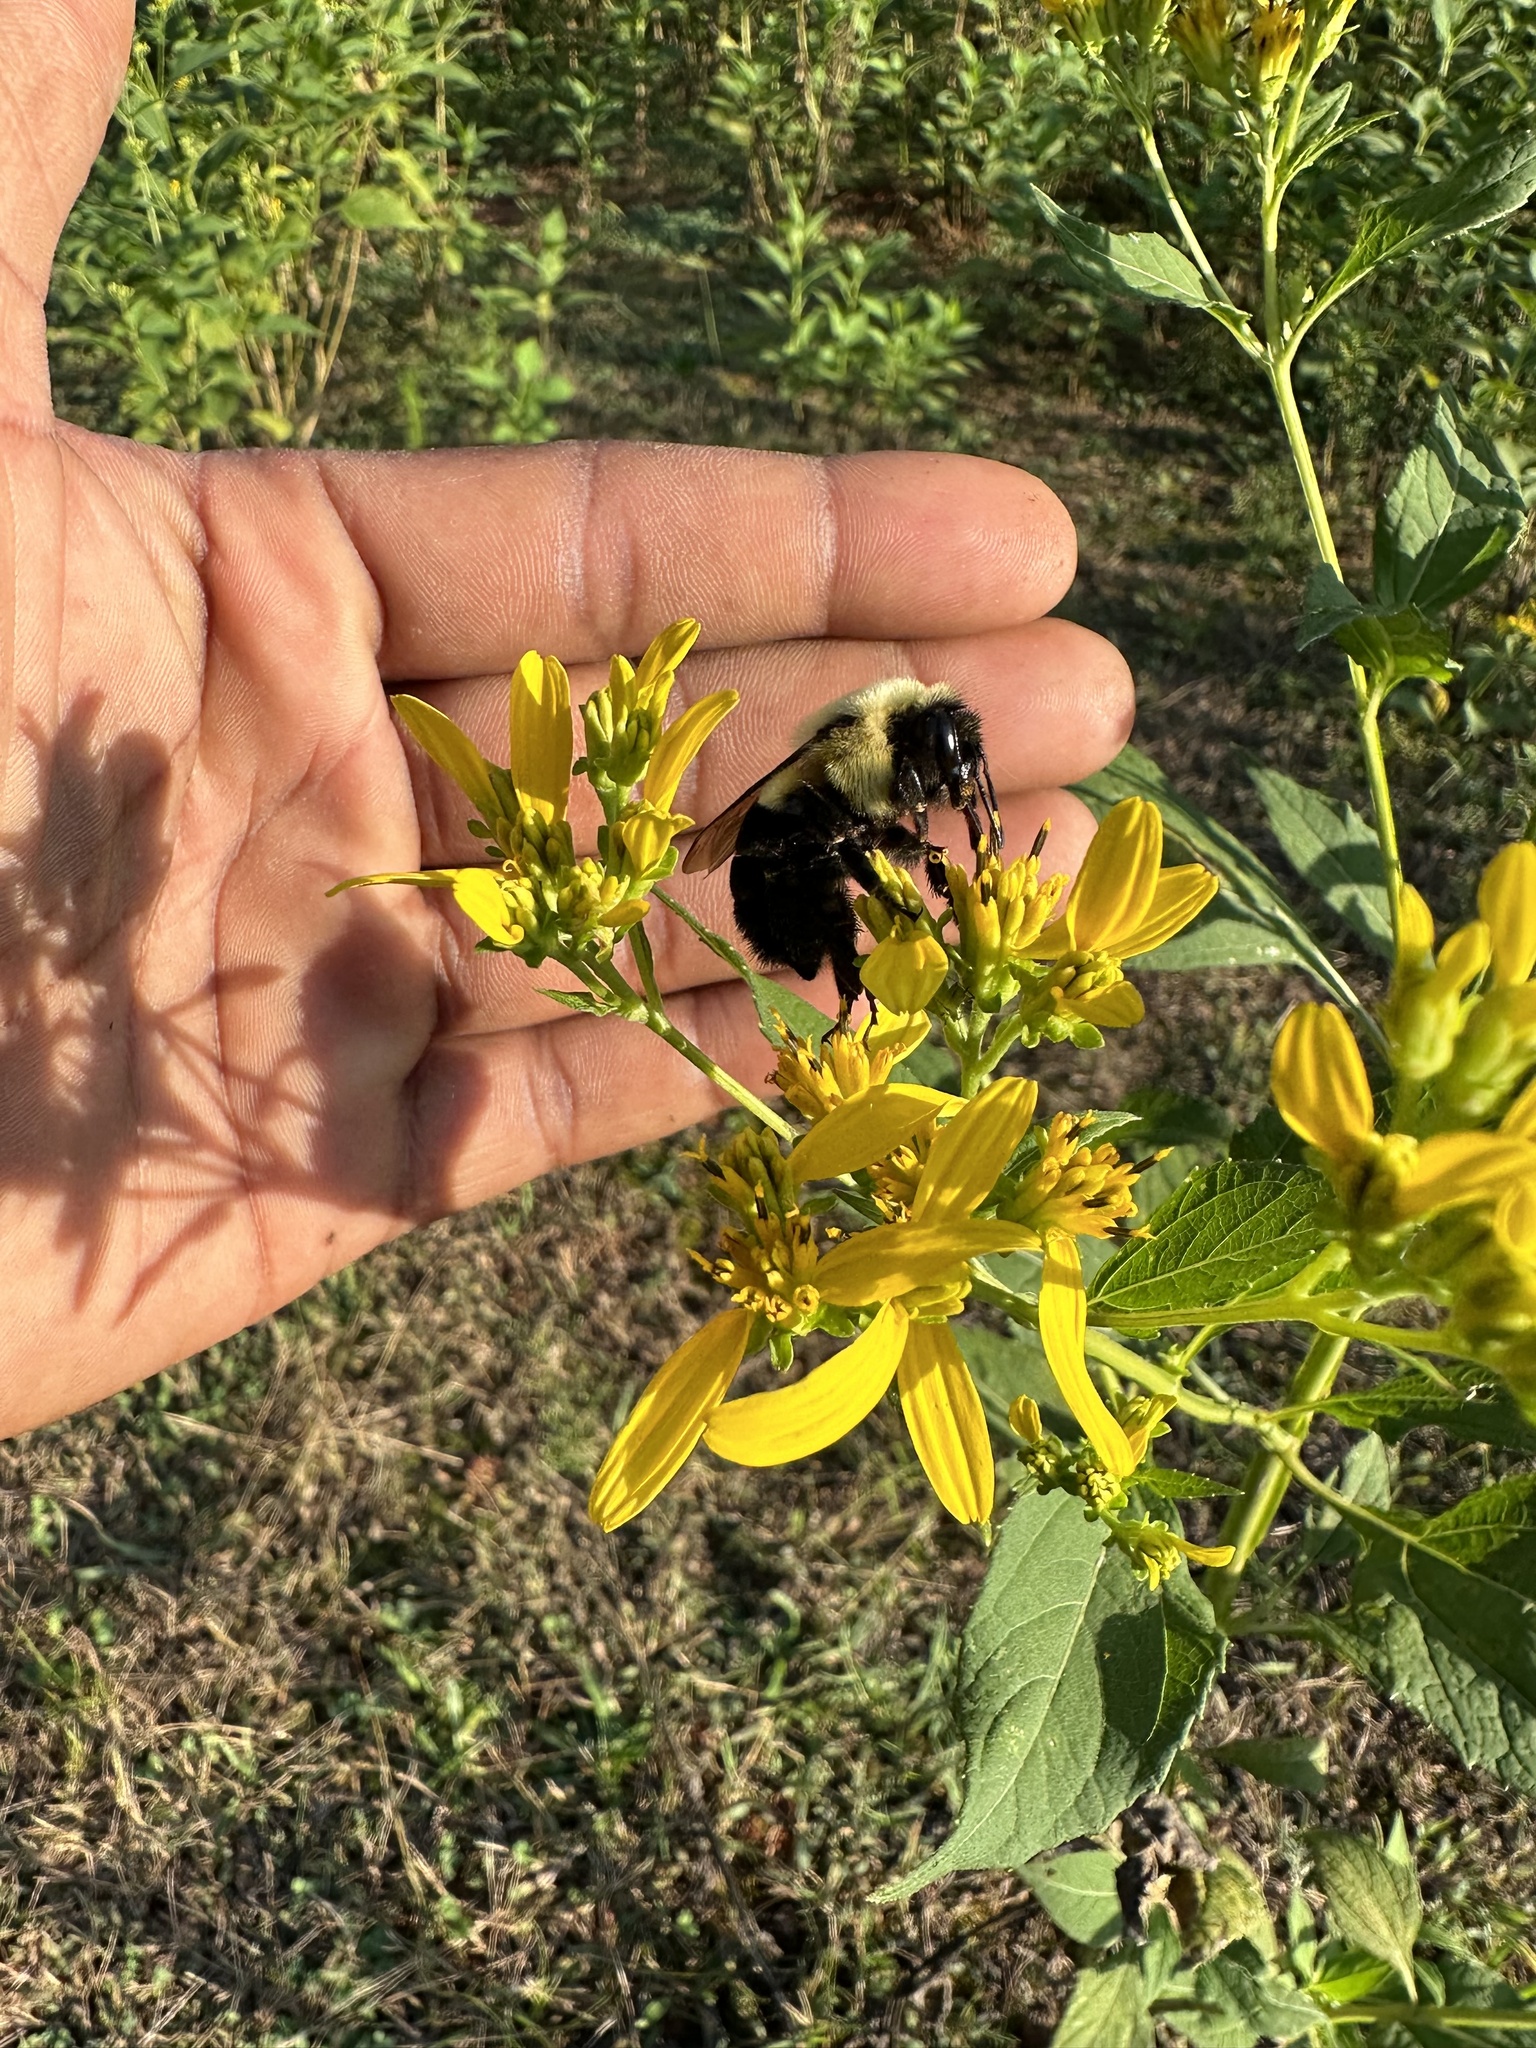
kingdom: Animalia
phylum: Arthropoda
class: Insecta
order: Hymenoptera
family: Apidae
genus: Bombus
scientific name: Bombus impatiens
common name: Common eastern bumble bee
